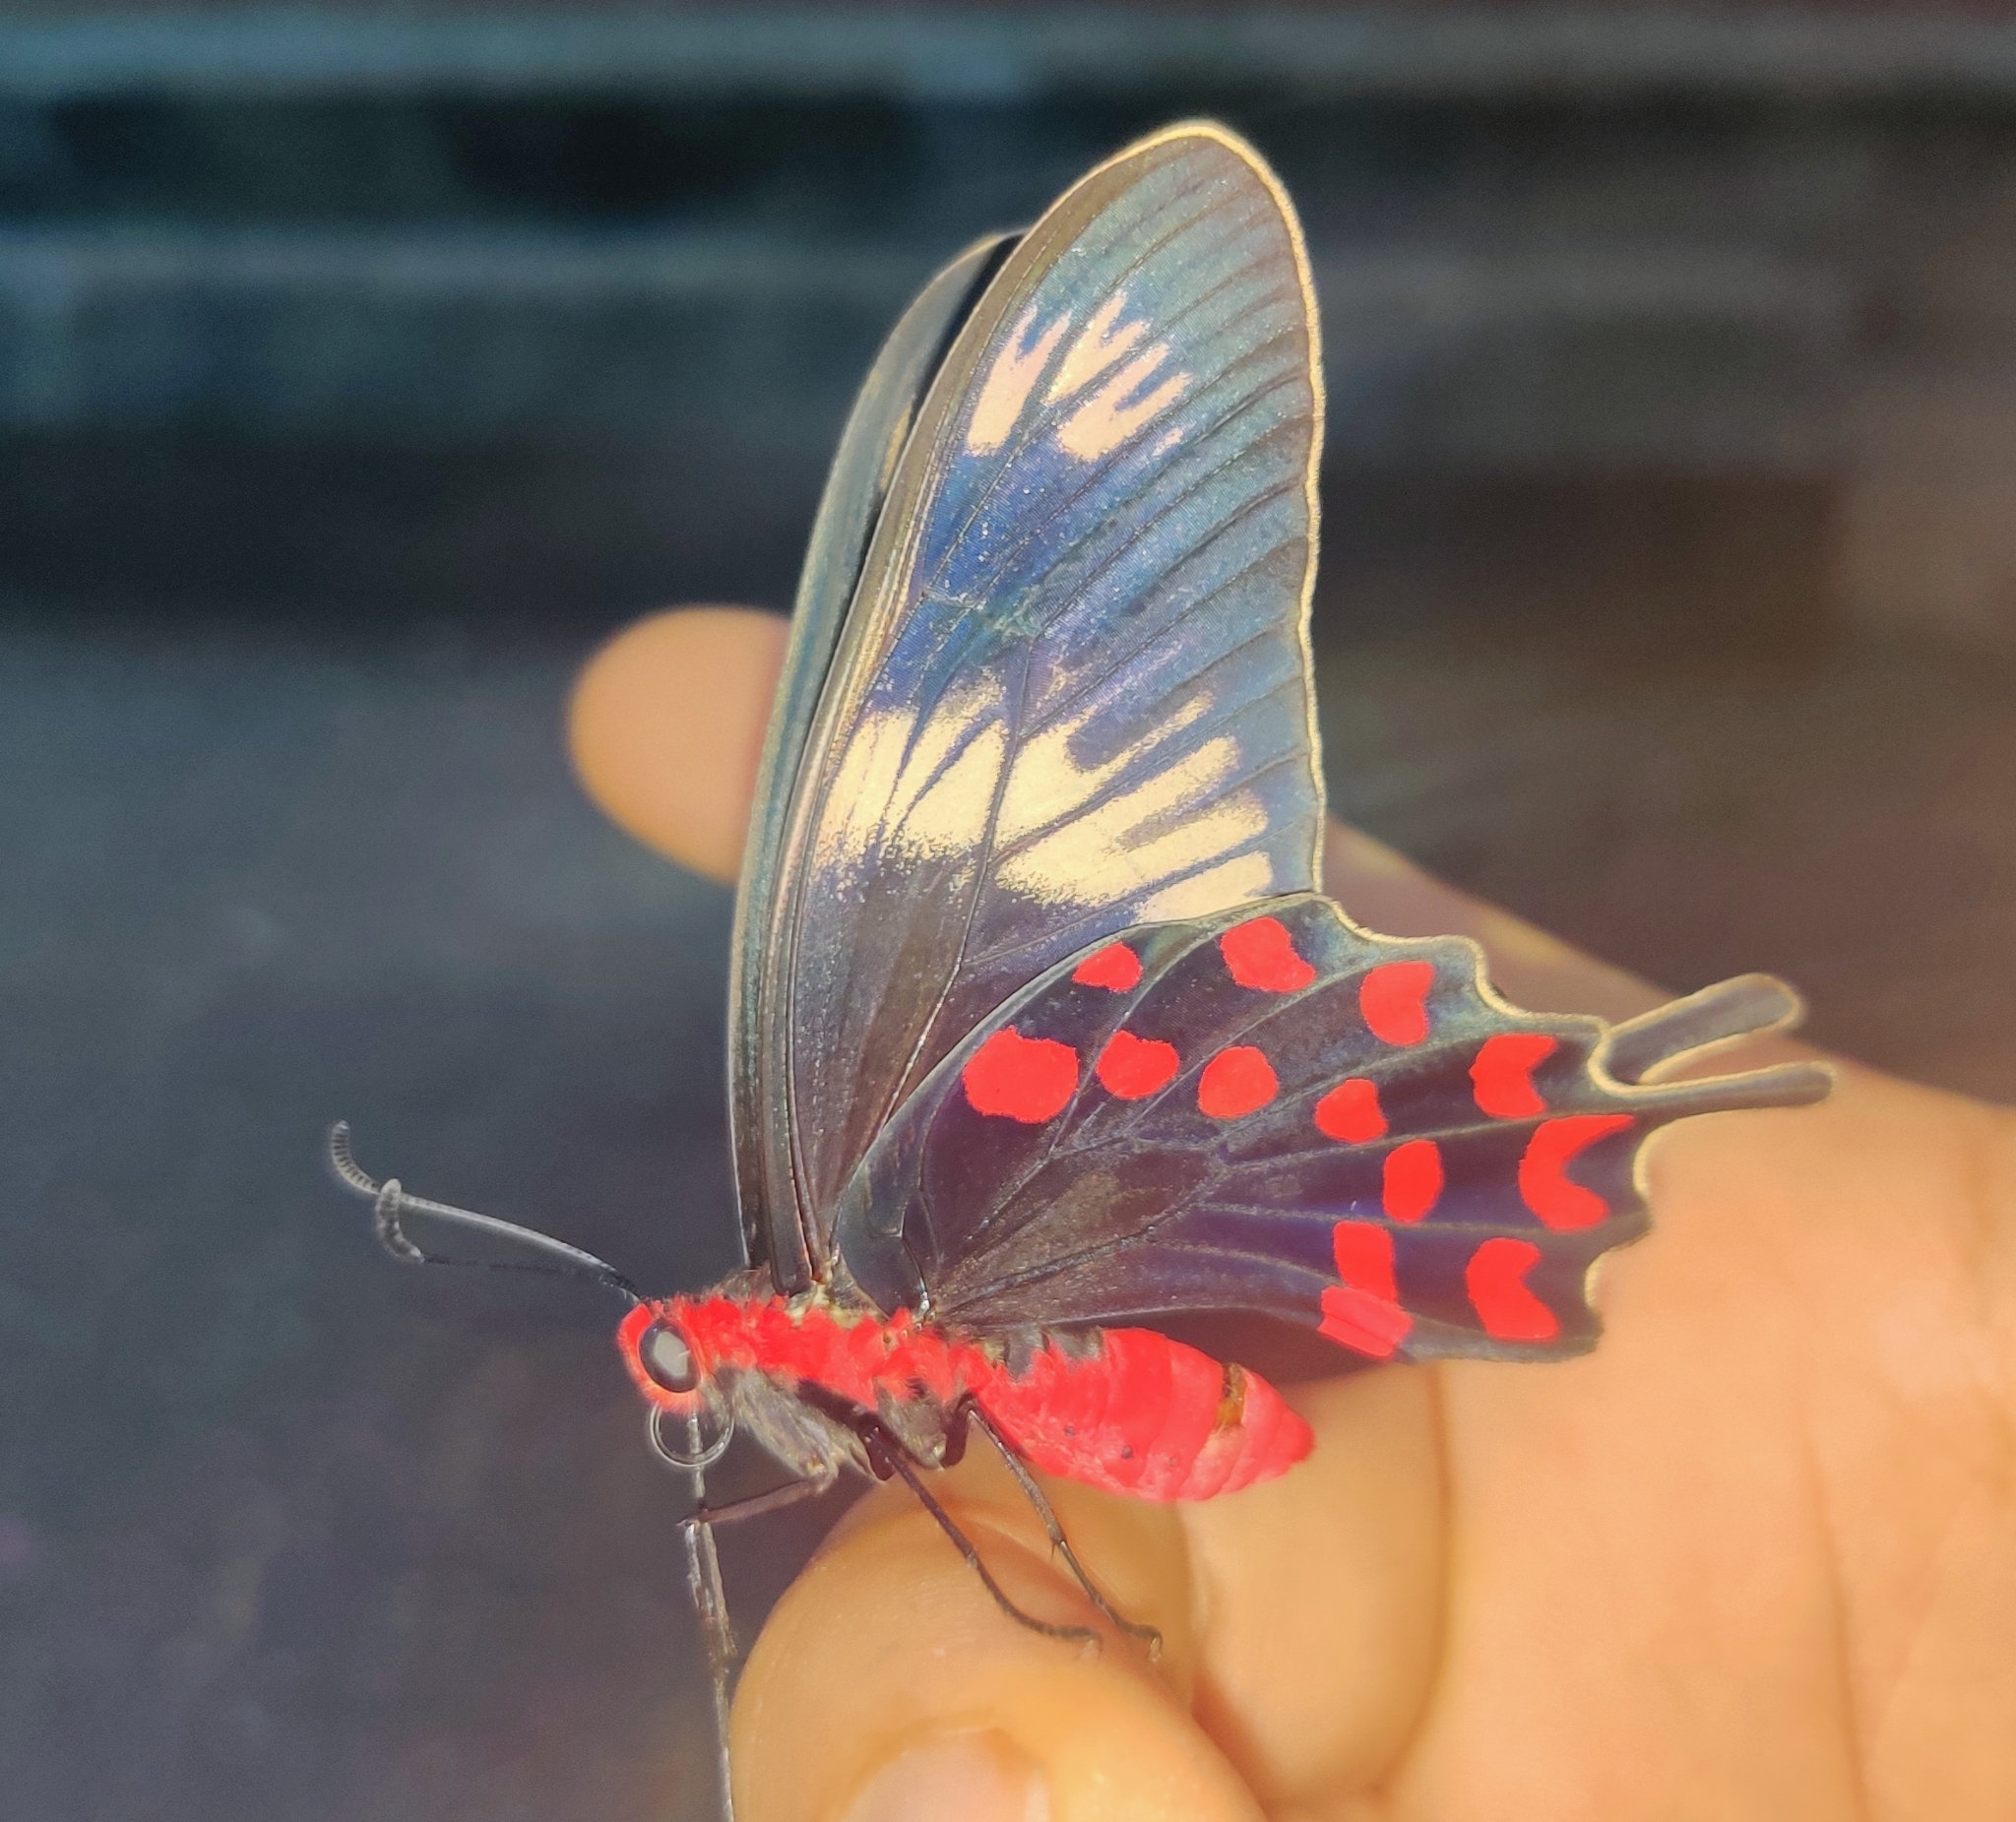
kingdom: Animalia
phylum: Arthropoda
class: Insecta
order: Lepidoptera
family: Papilionidae
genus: Pachliopta
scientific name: Pachliopta hector
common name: Crimson rose
